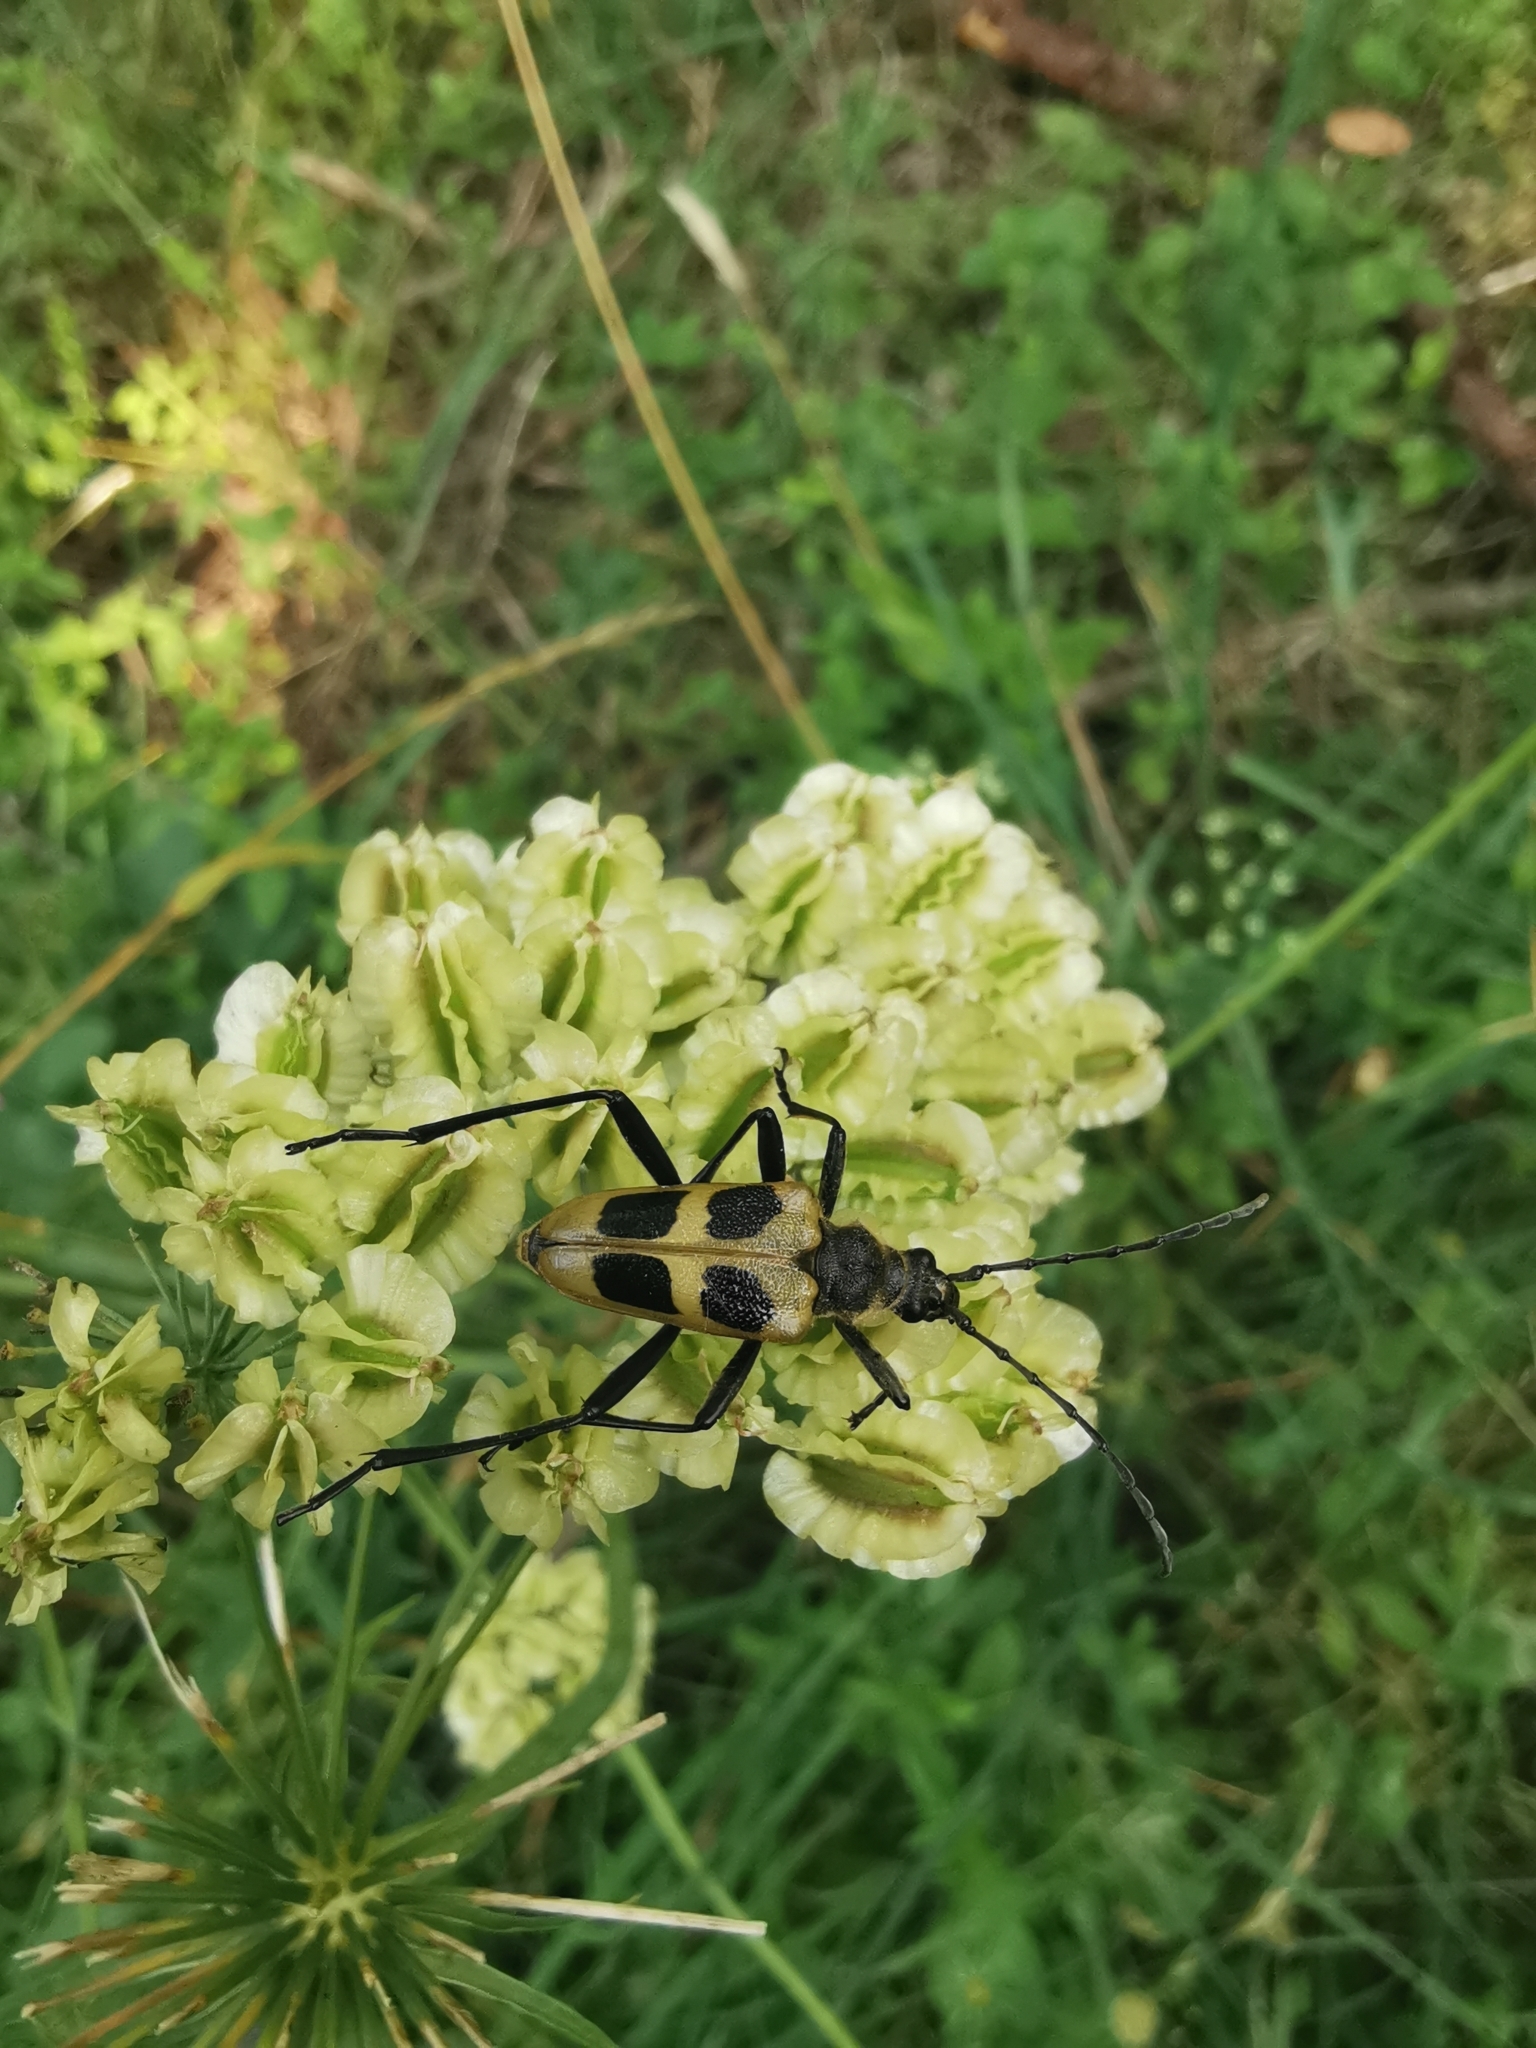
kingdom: Animalia
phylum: Arthropoda
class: Insecta
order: Coleoptera
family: Cerambycidae
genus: Pachyta
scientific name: Pachyta quadrimaculata
